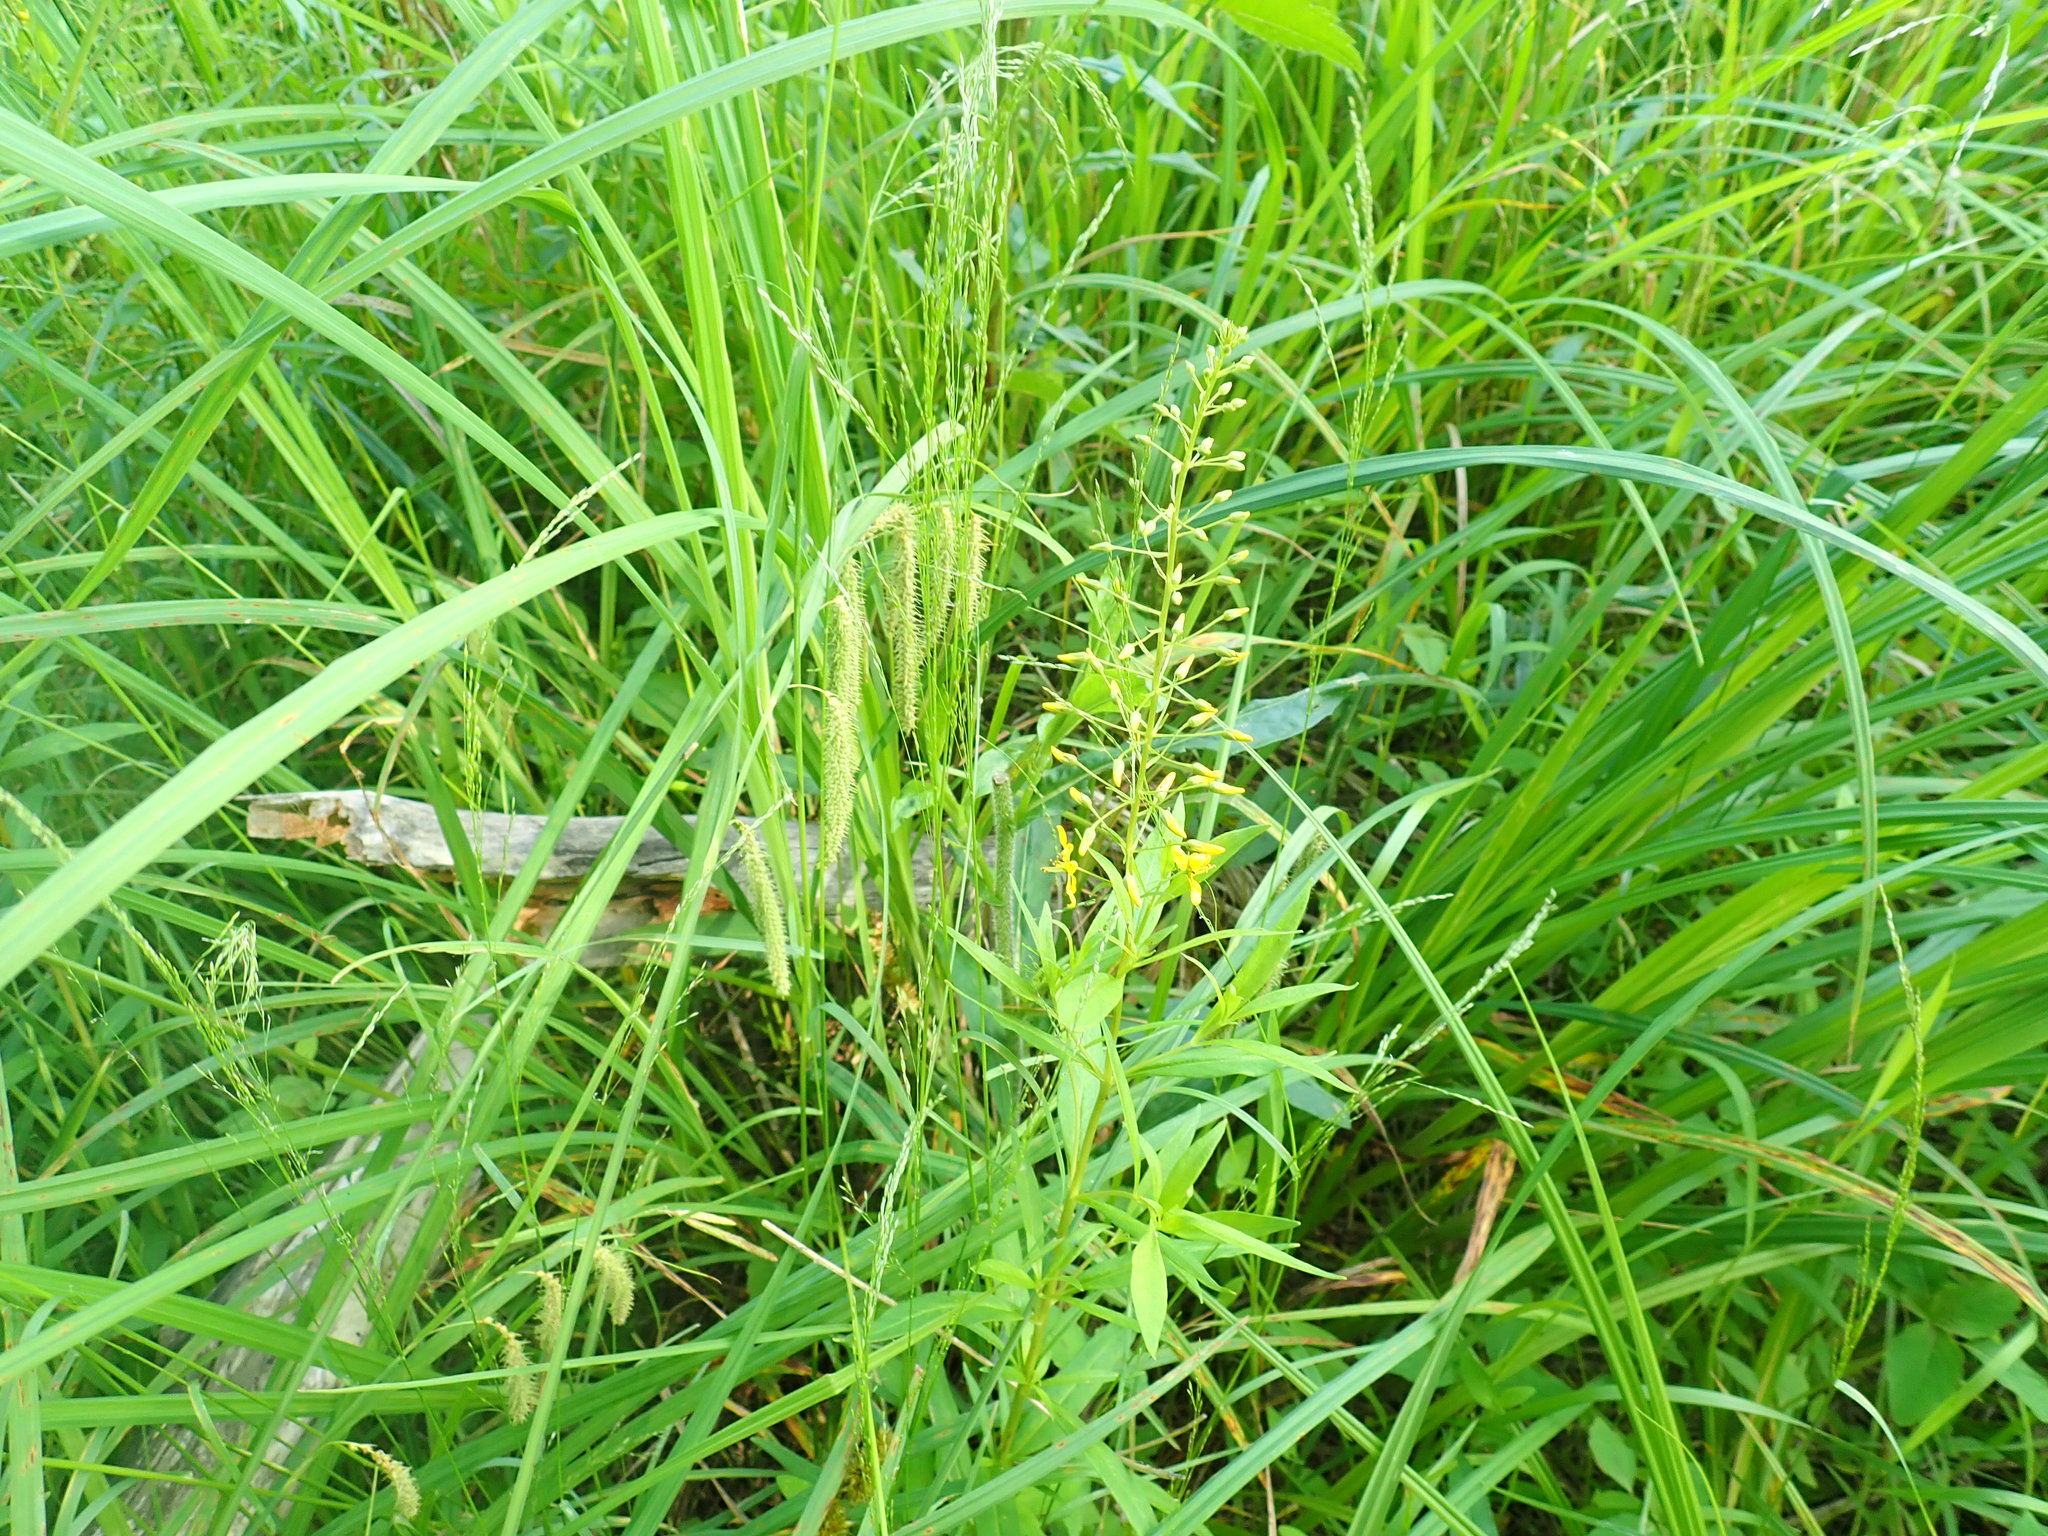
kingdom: Plantae
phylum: Tracheophyta
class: Magnoliopsida
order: Ericales
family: Primulaceae
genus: Lysimachia
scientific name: Lysimachia terrestris
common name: Lake loosestrife
